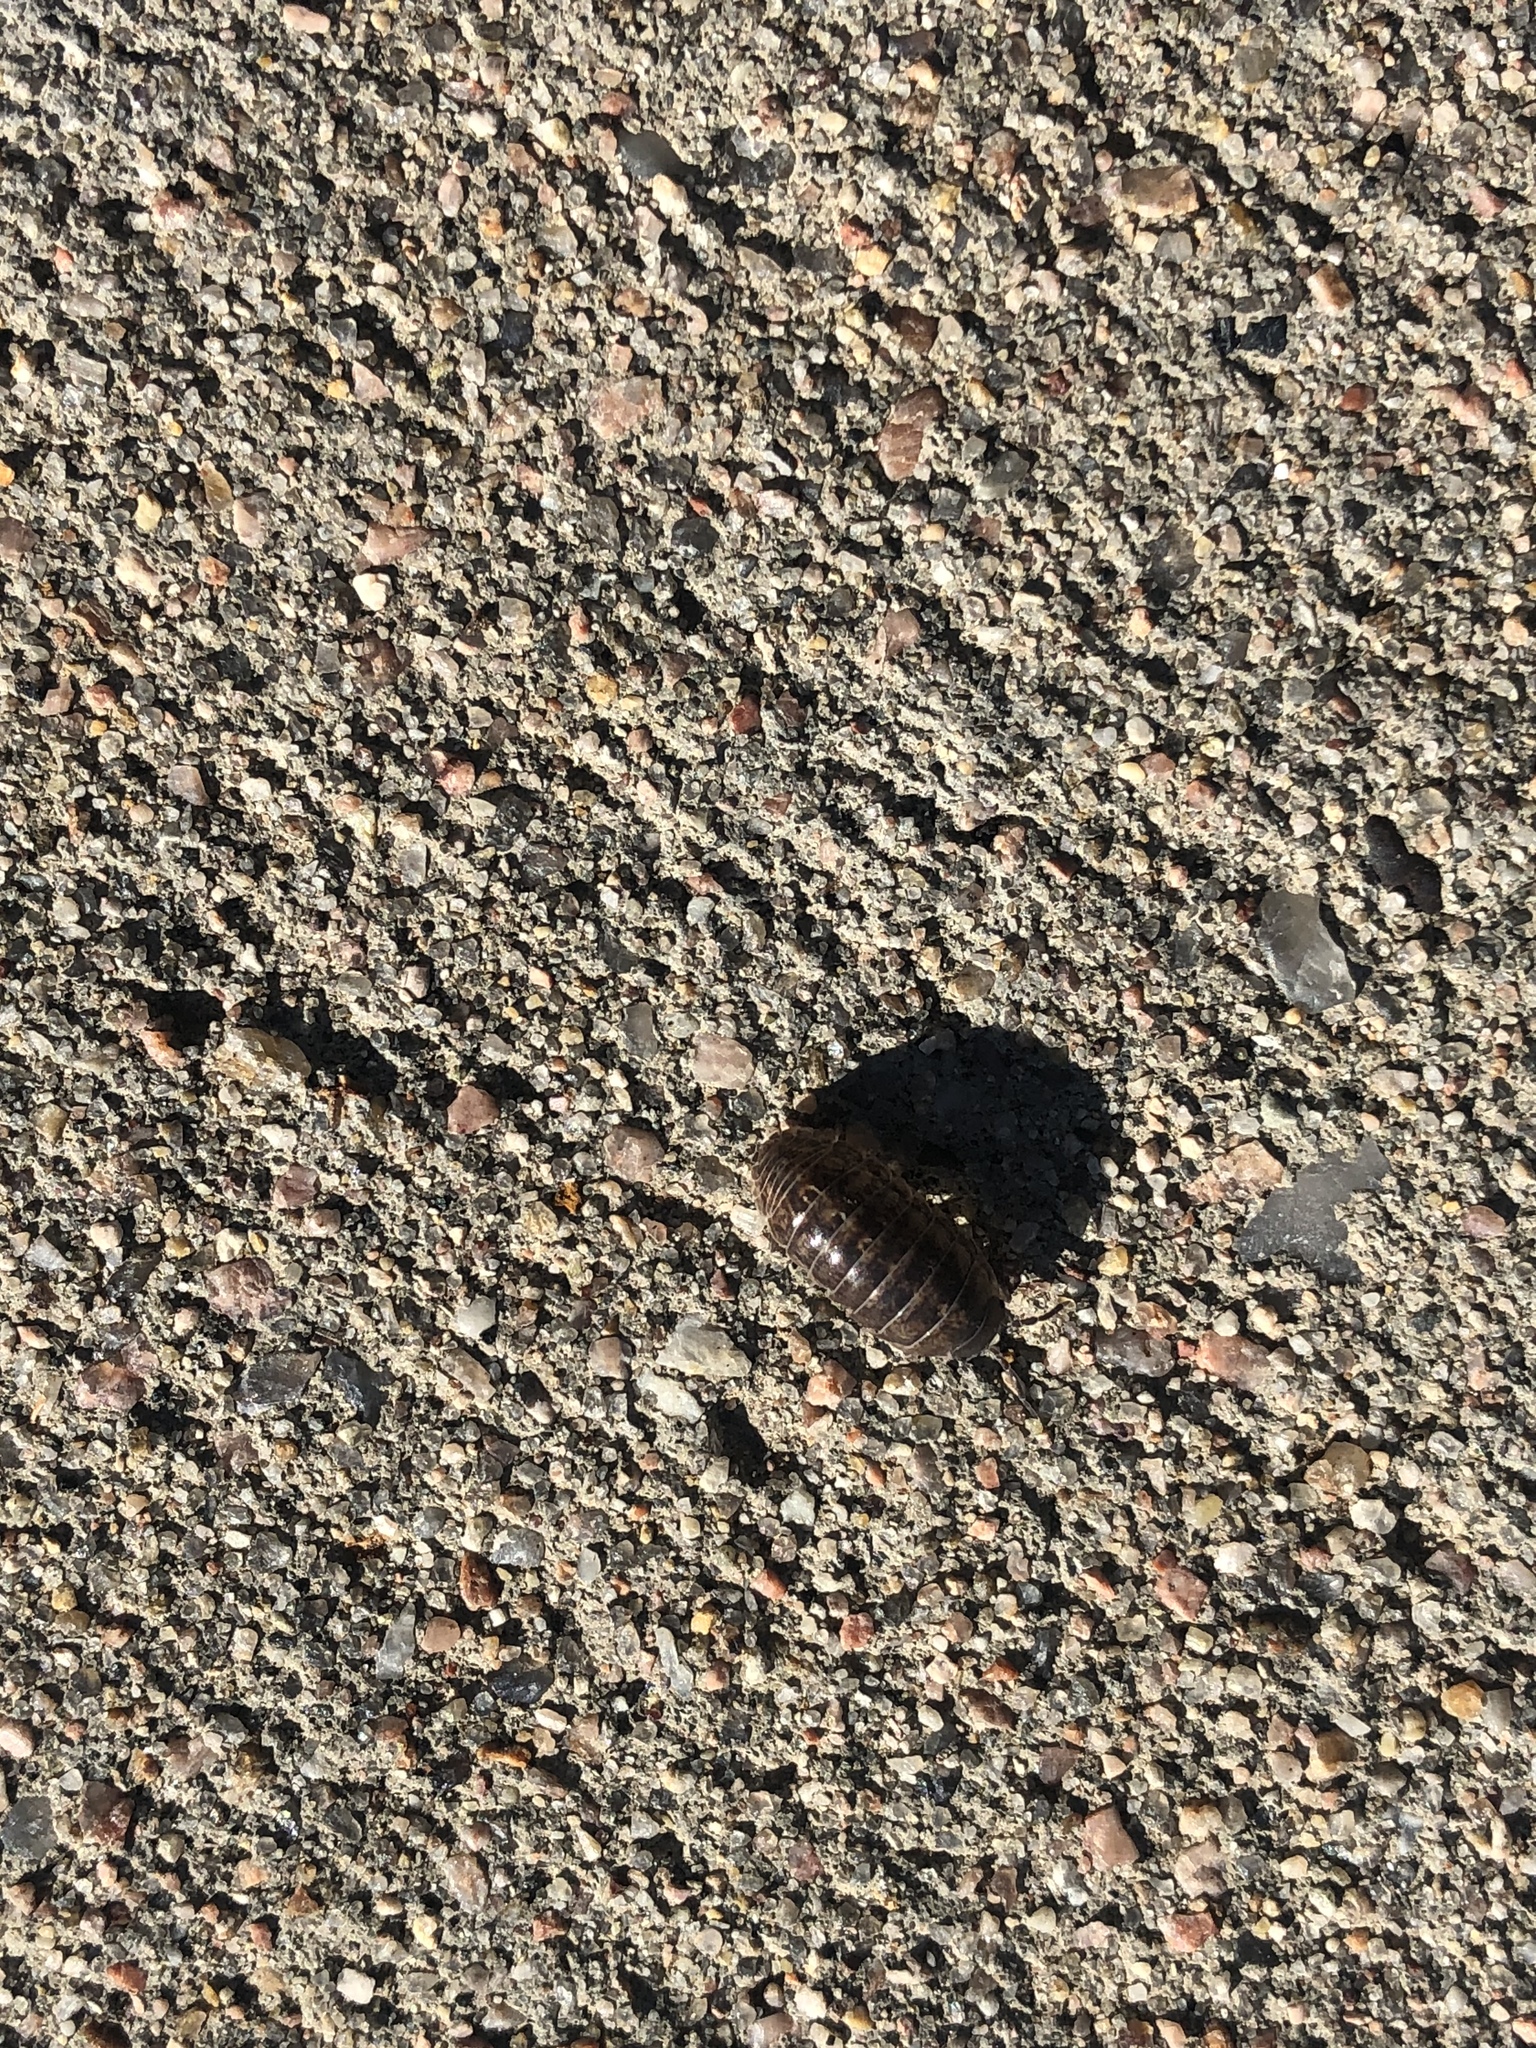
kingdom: Animalia
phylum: Arthropoda
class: Malacostraca
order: Isopoda
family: Armadillidiidae
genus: Armadillidium
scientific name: Armadillidium vulgare
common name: Common pill woodlouse
